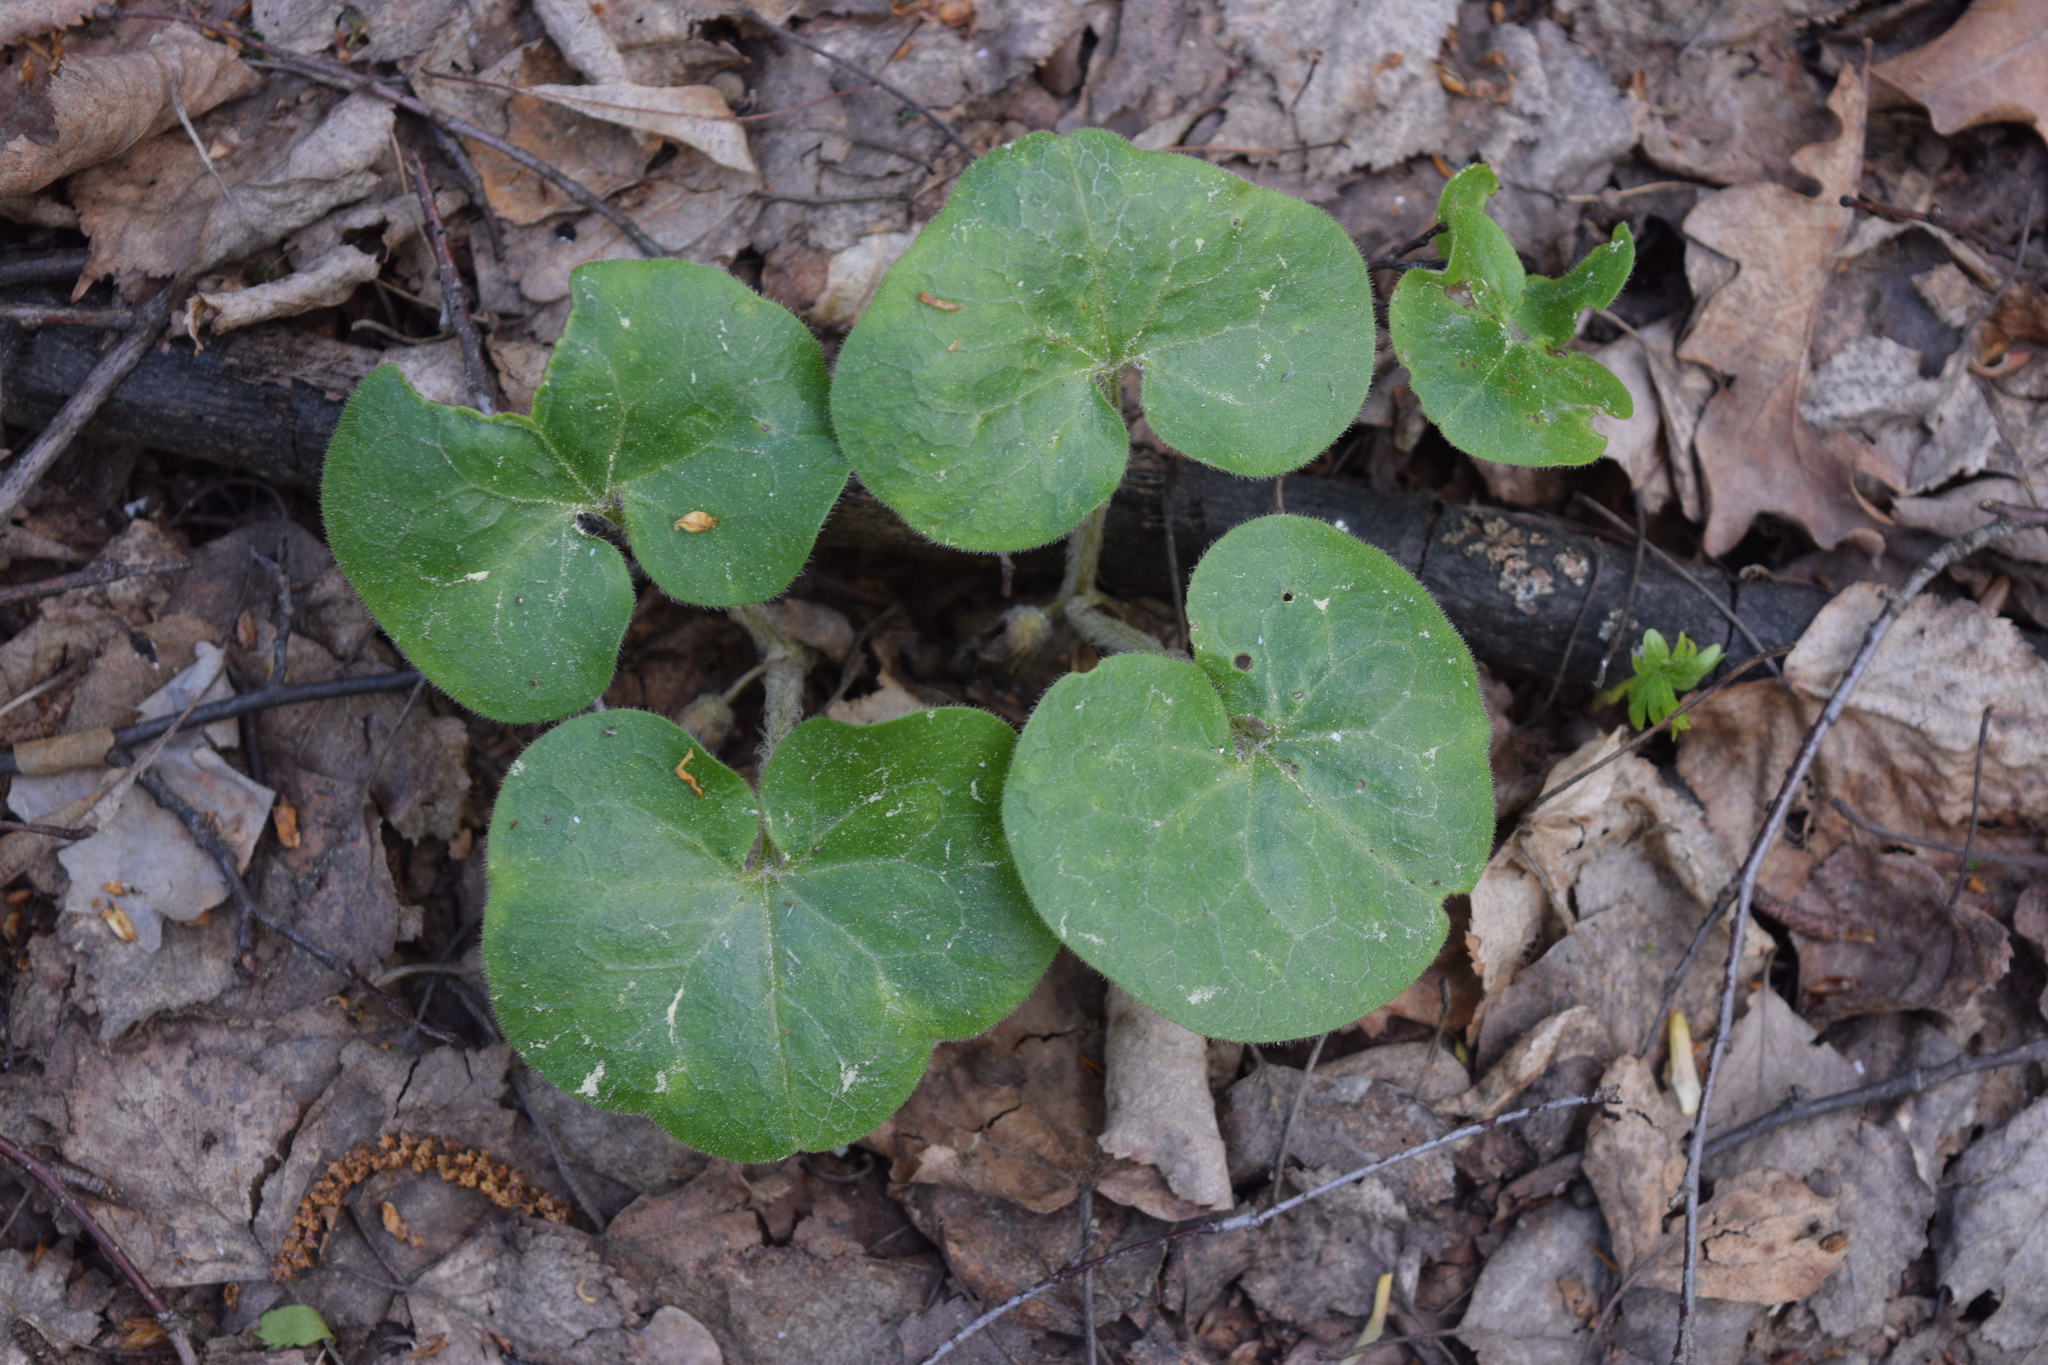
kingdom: Plantae
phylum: Tracheophyta
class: Magnoliopsida
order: Piperales
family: Aristolochiaceae
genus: Asarum
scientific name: Asarum europaeum
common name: Asarabacca
